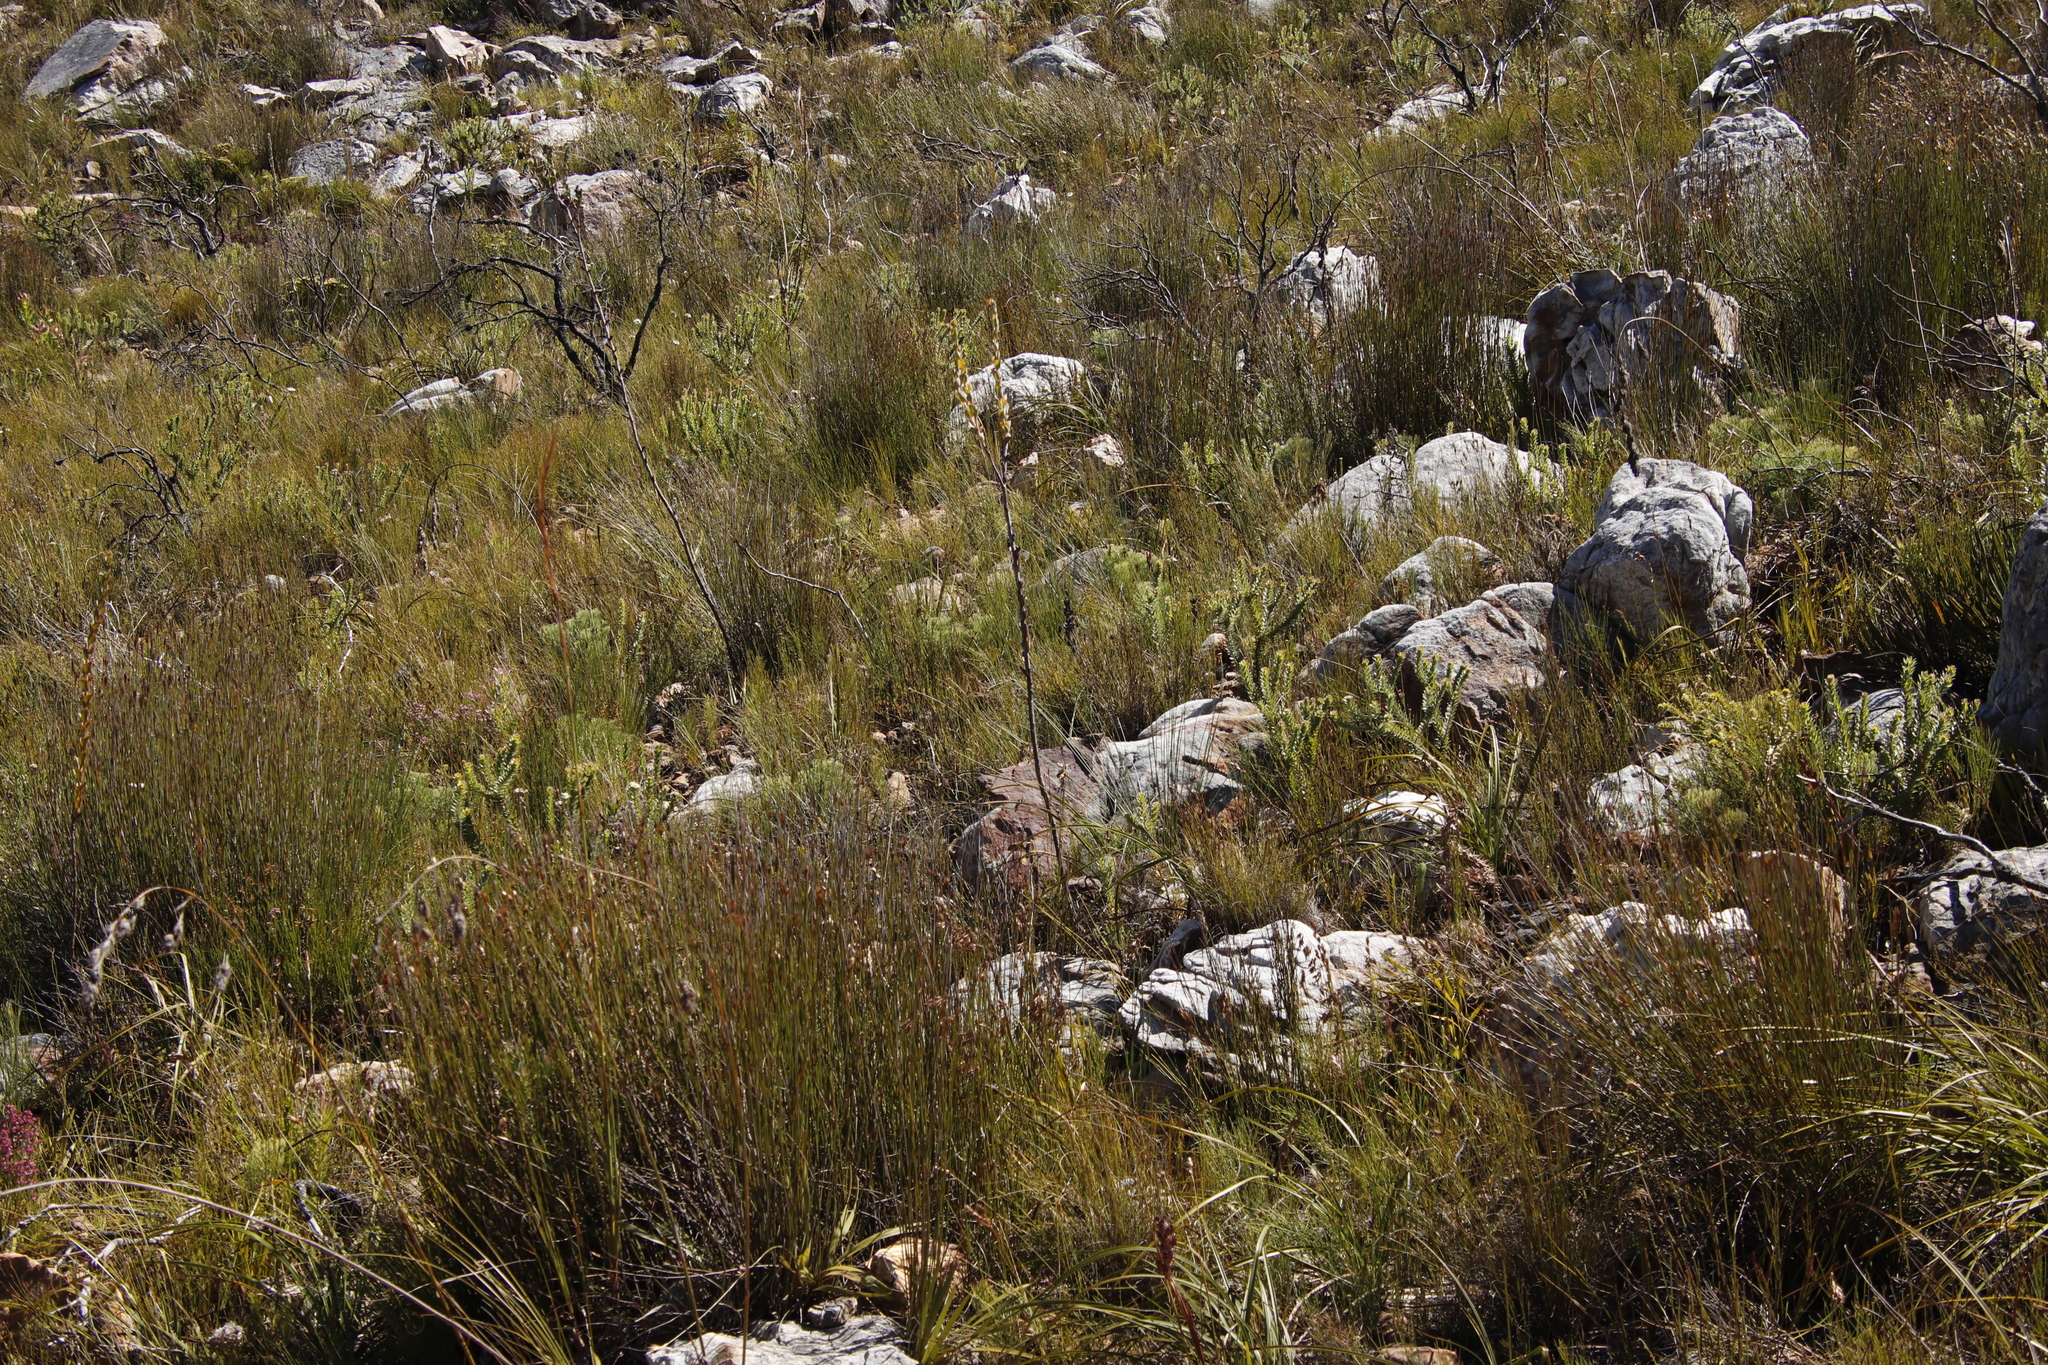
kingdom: Plantae
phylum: Tracheophyta
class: Magnoliopsida
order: Santalales
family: Thesiaceae
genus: Thesium
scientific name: Thesium euphorbioides
